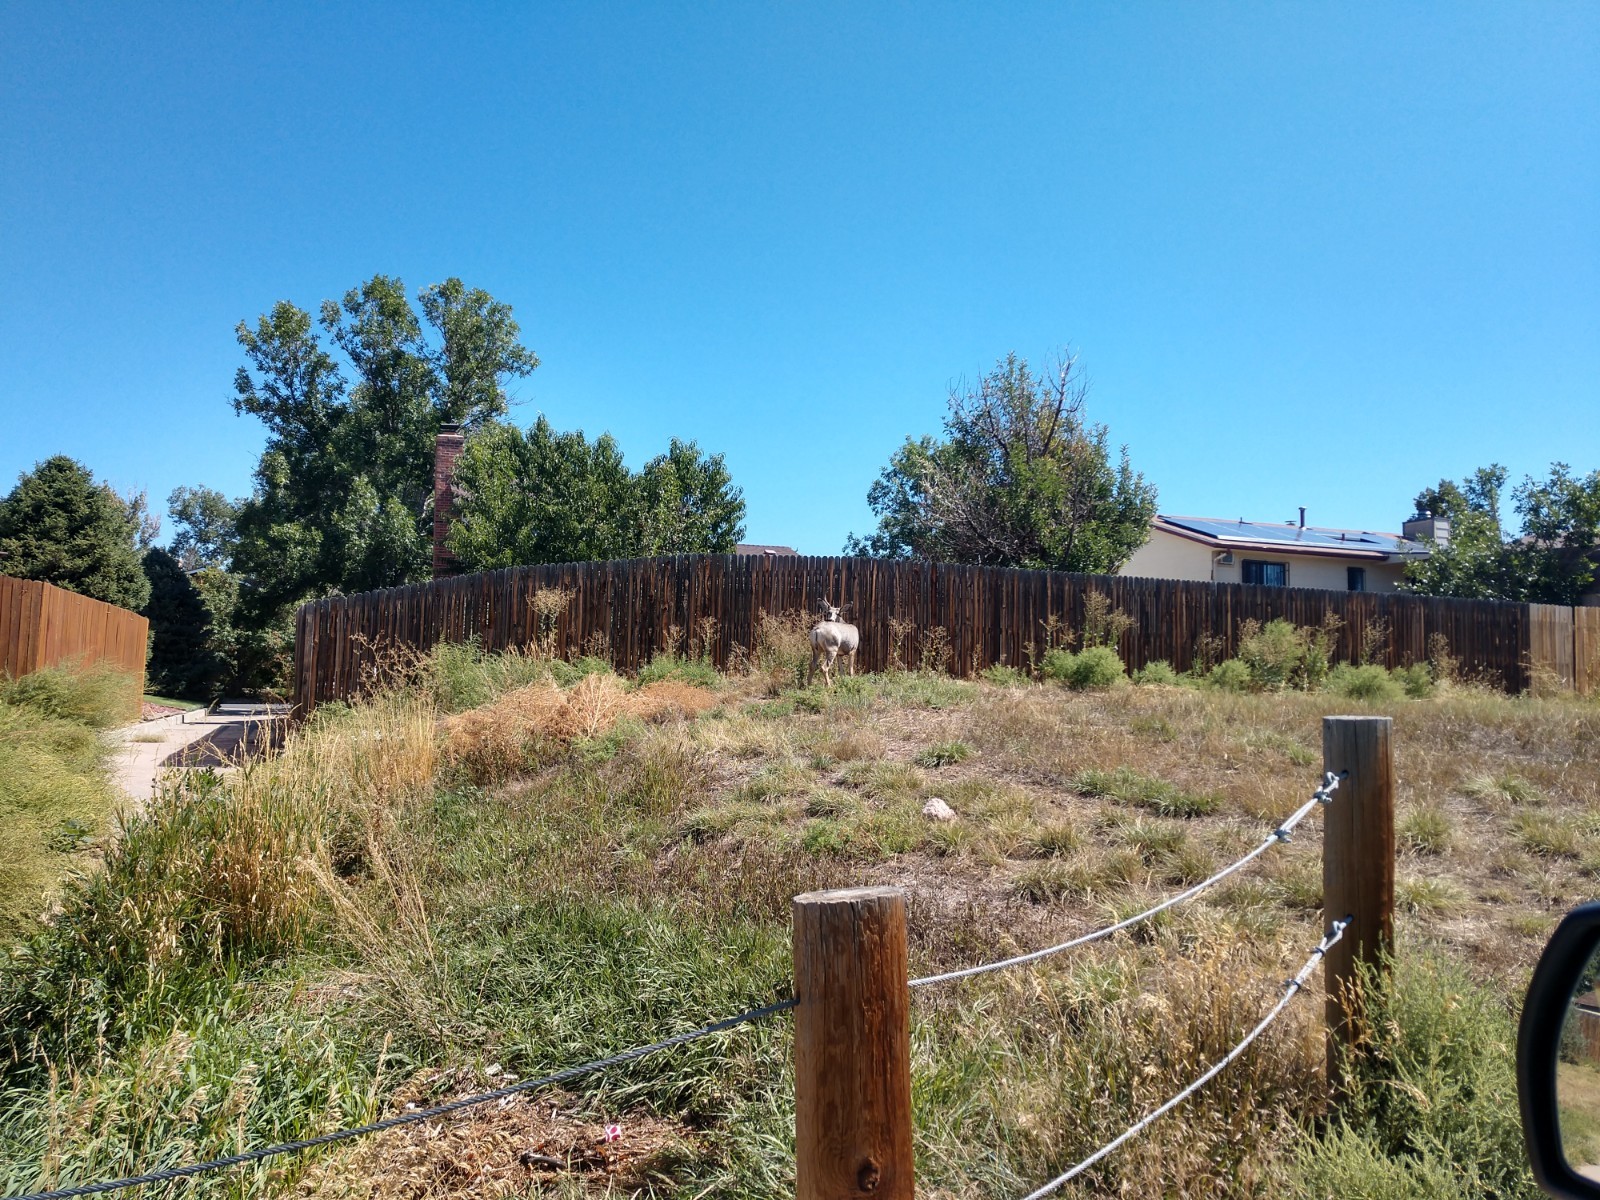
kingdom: Animalia
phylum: Chordata
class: Mammalia
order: Artiodactyla
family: Cervidae
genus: Odocoileus
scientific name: Odocoileus hemionus
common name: Mule deer
